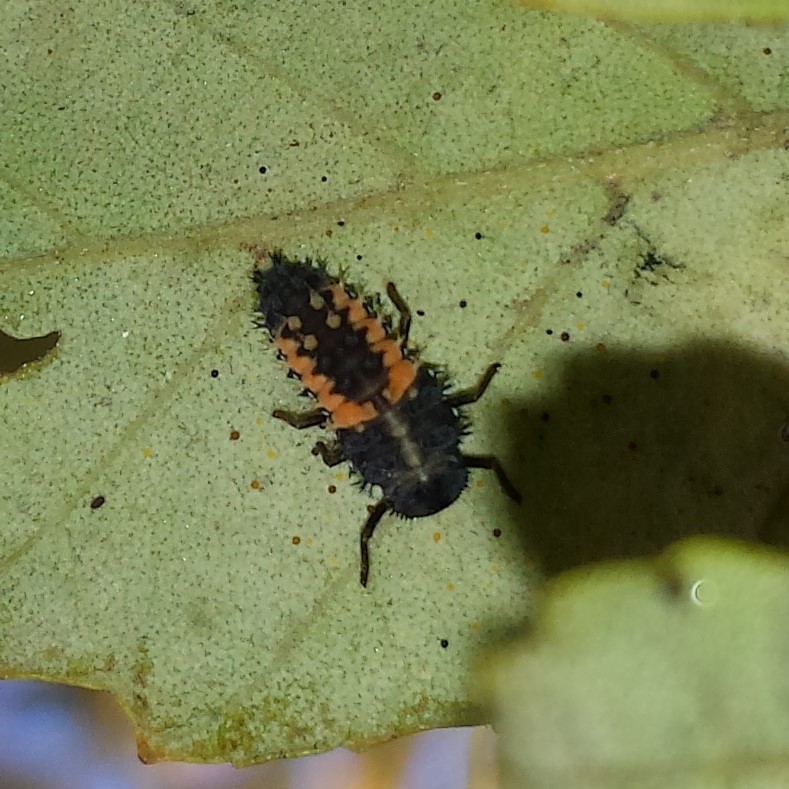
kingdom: Animalia
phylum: Arthropoda
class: Insecta
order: Coleoptera
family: Coccinellidae
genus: Harmonia
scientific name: Harmonia axyridis
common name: Harlequin ladybird
